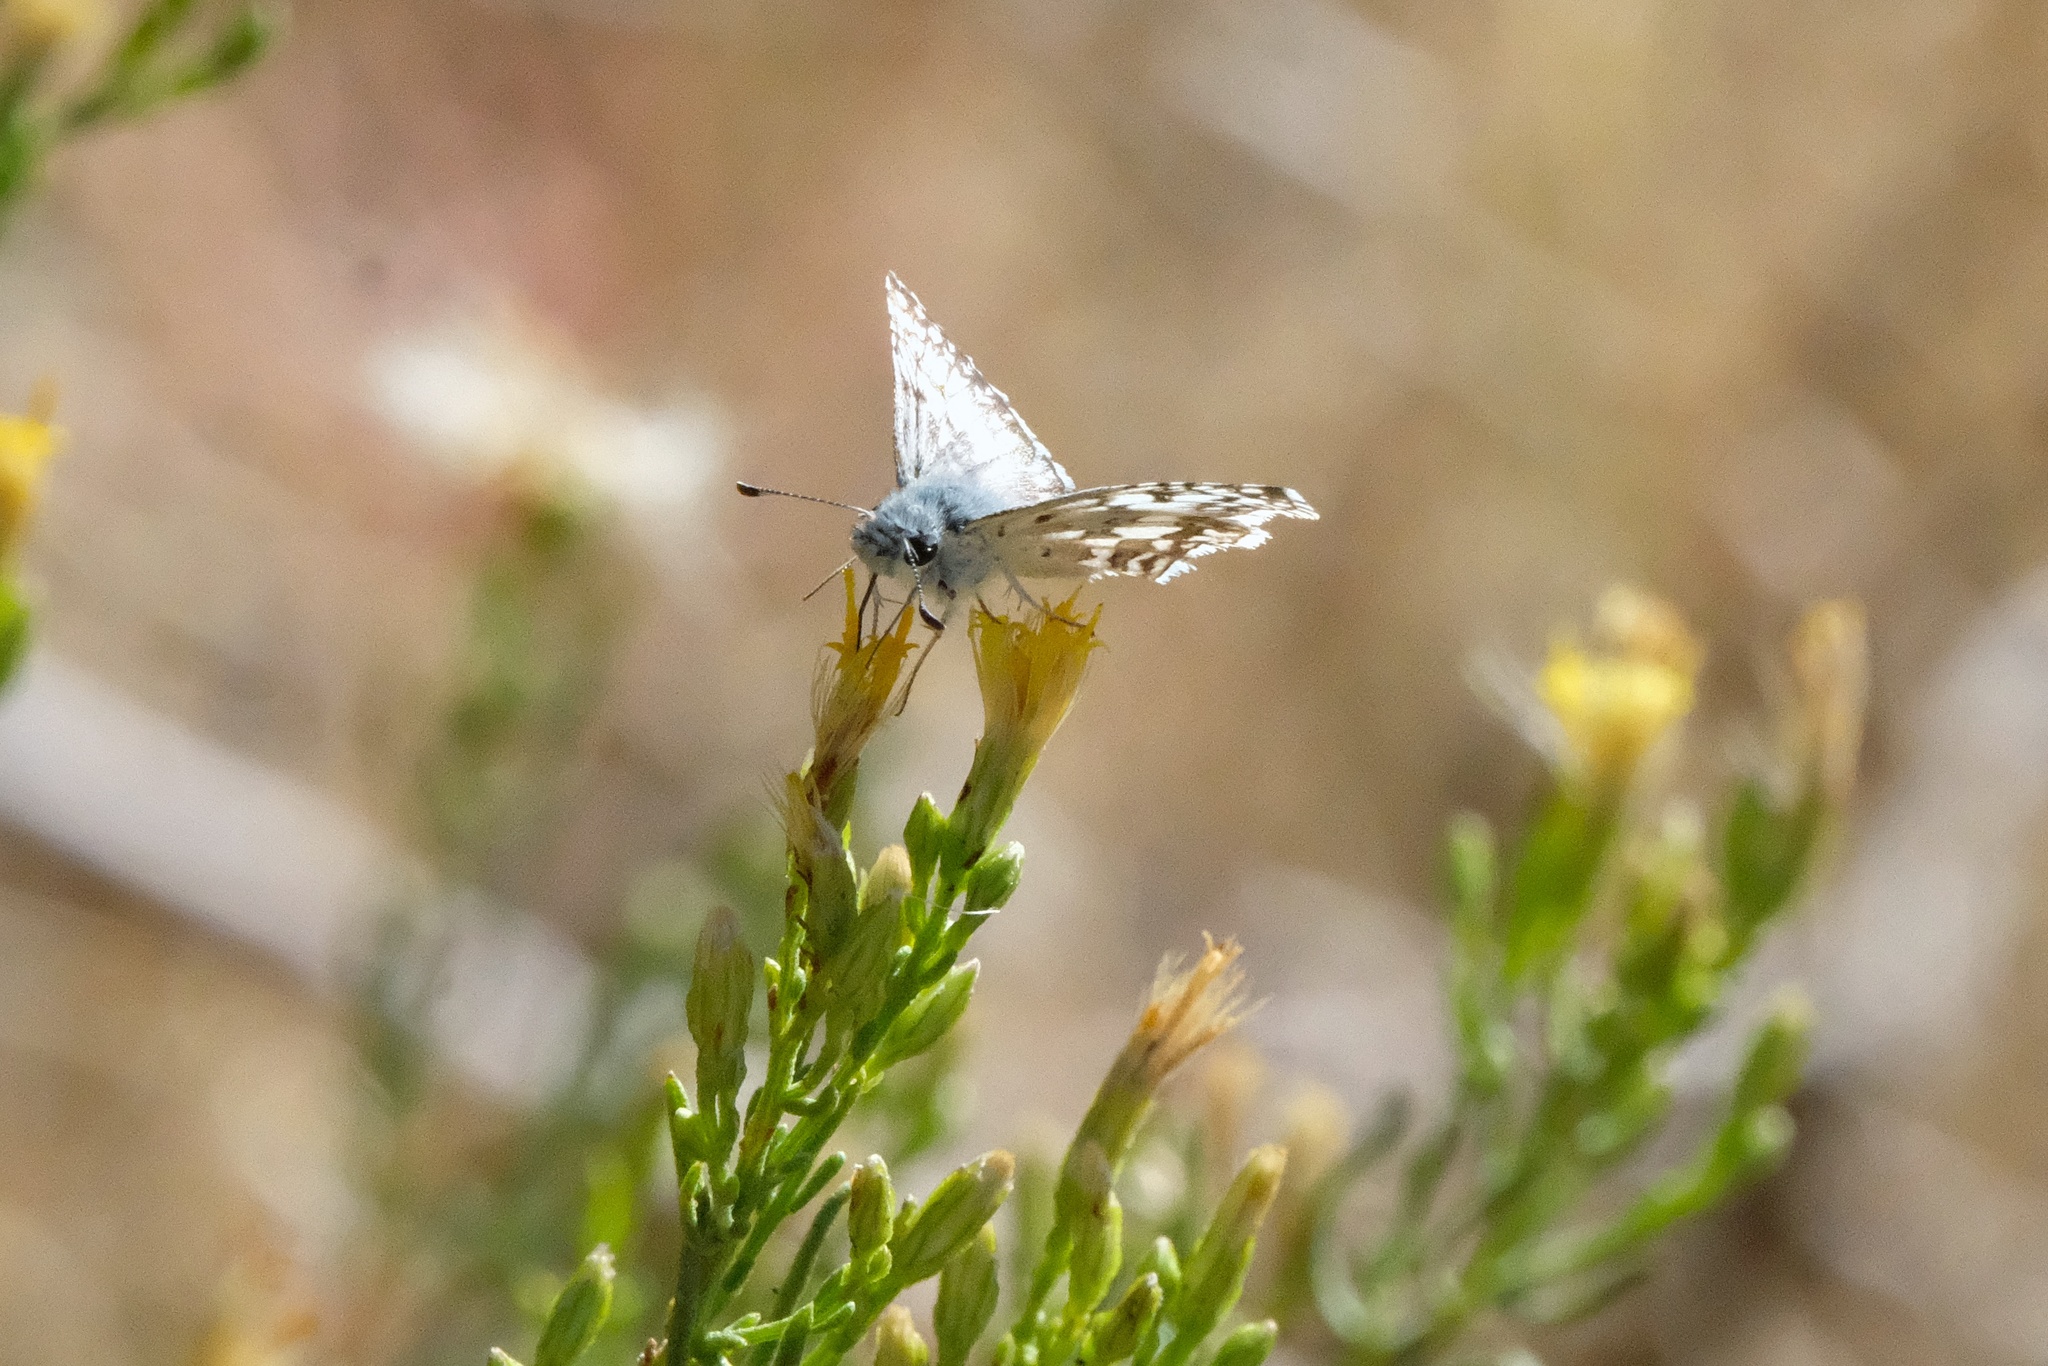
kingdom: Animalia
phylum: Arthropoda
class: Insecta
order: Lepidoptera
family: Hesperiidae
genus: Burnsius
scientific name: Burnsius albezens
